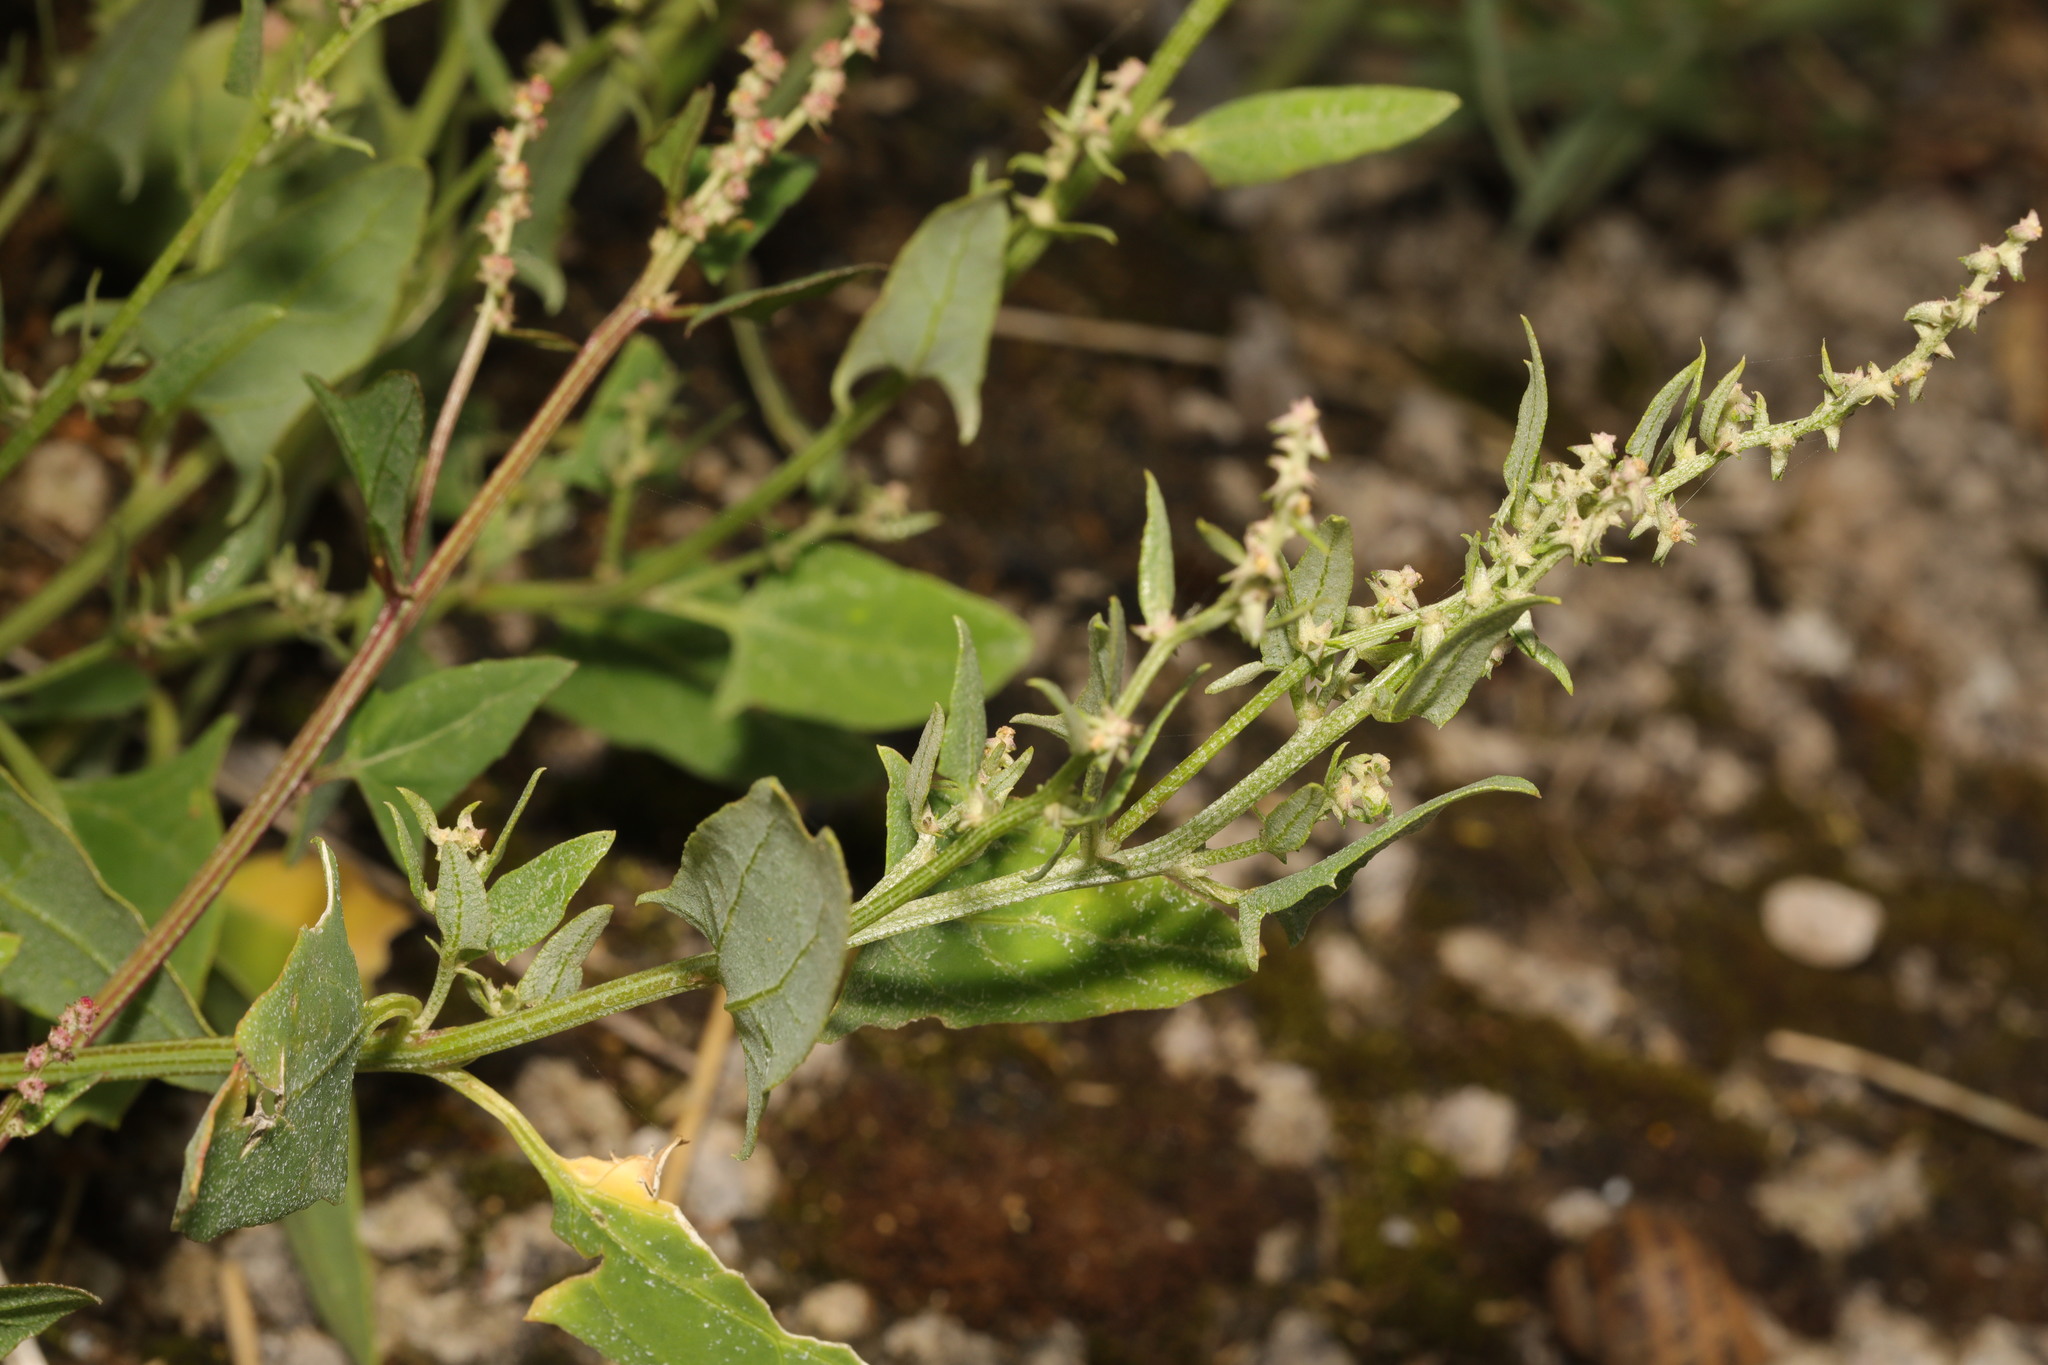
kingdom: Plantae
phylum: Tracheophyta
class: Magnoliopsida
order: Caryophyllales
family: Amaranthaceae
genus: Atriplex
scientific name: Atriplex prostrata
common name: Spear-leaved orache
